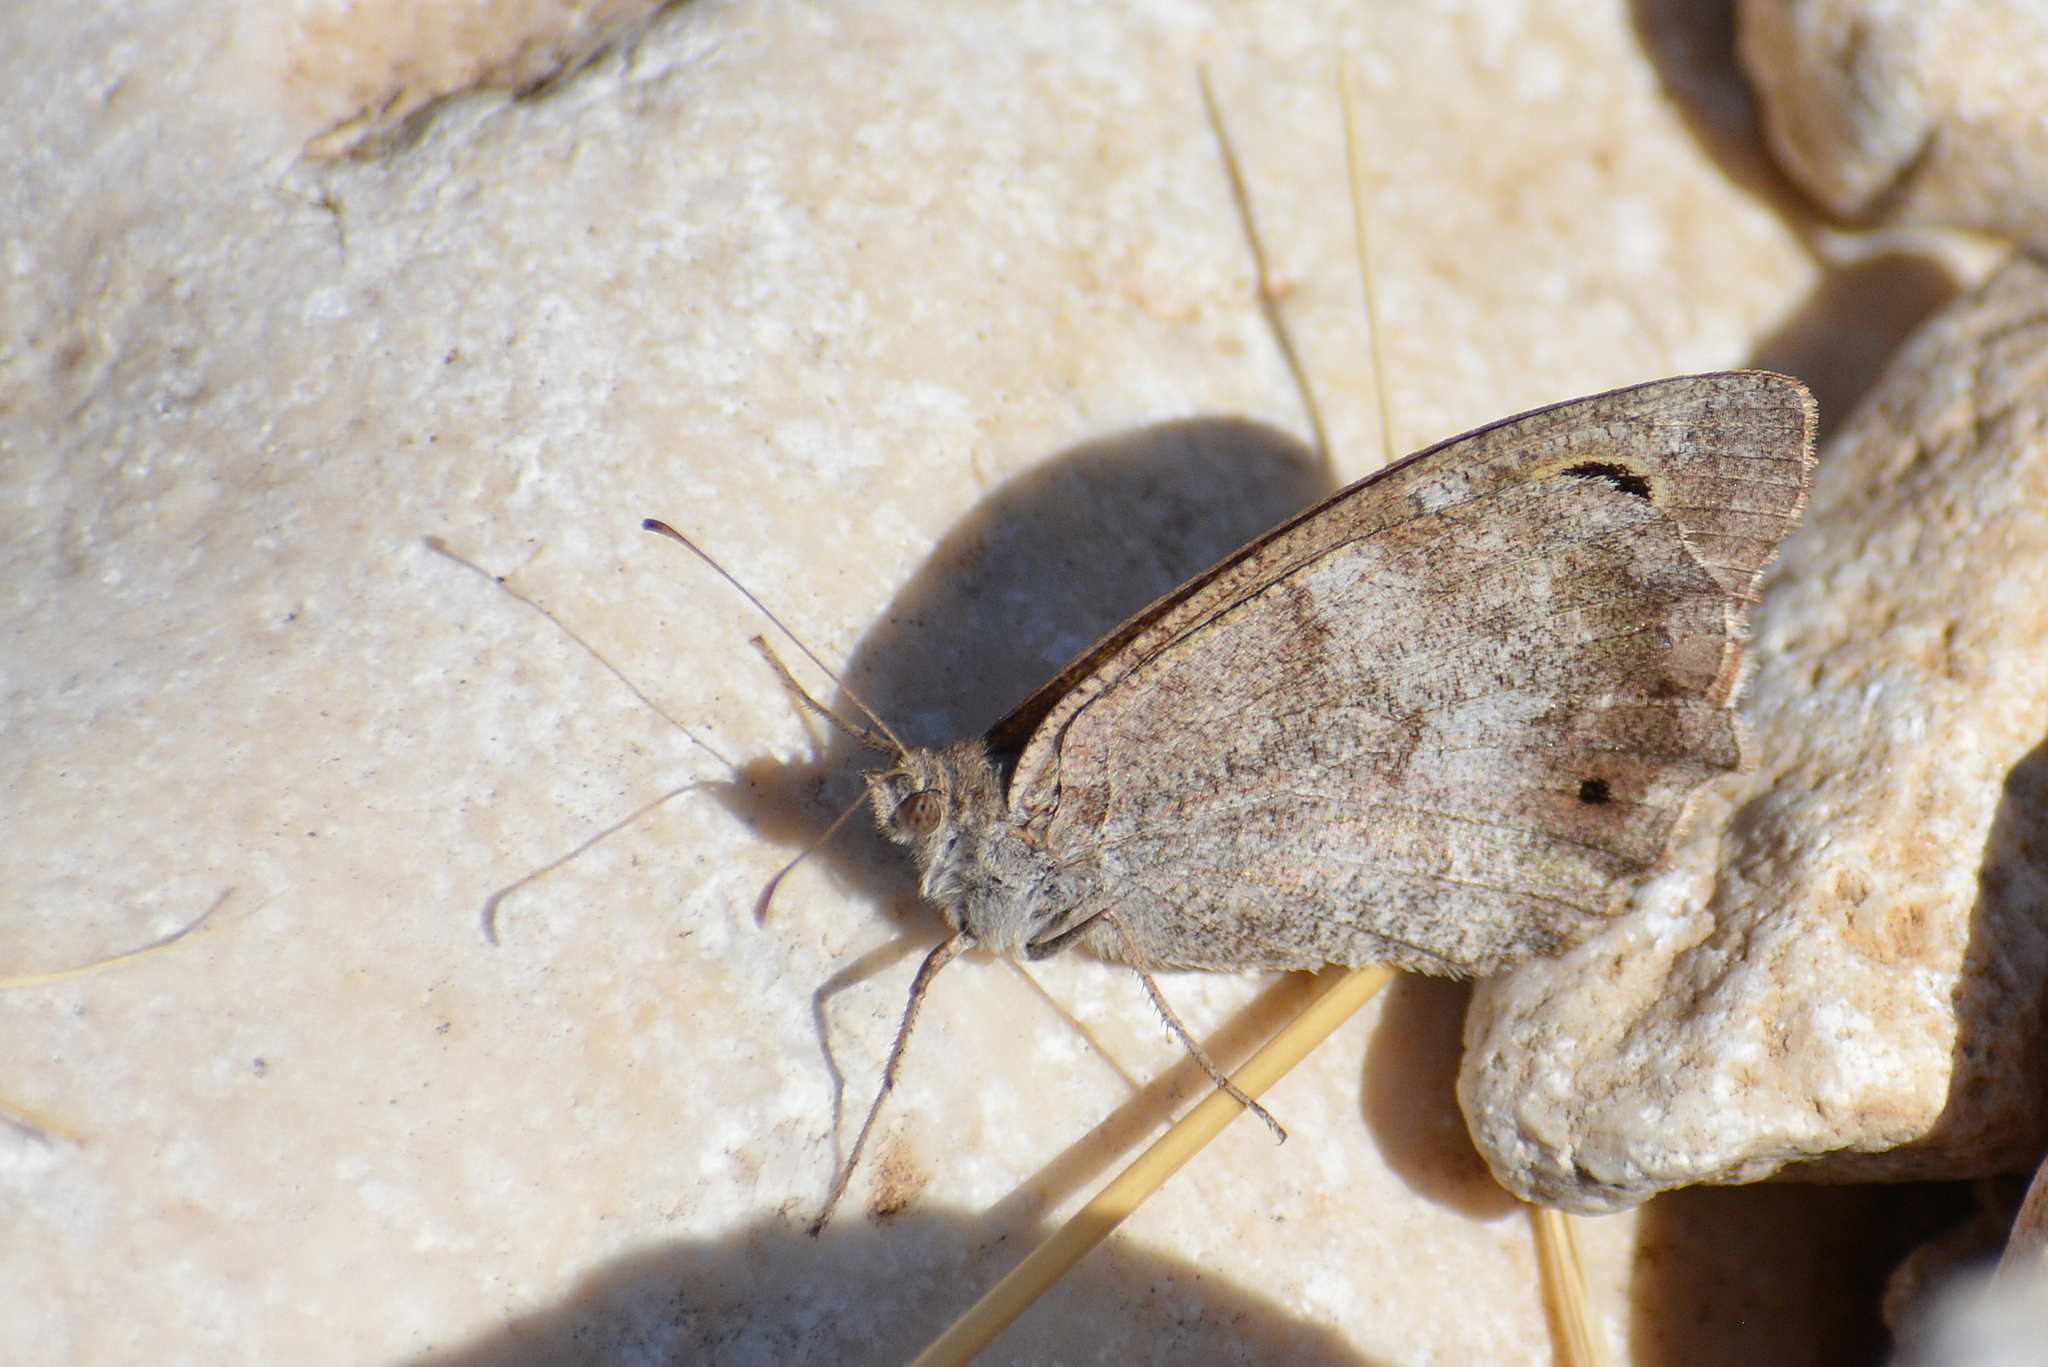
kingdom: Animalia
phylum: Arthropoda
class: Insecta
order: Lepidoptera
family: Nymphalidae
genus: Hipparchia
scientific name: Hipparchia statilinus
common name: Tree grayling
